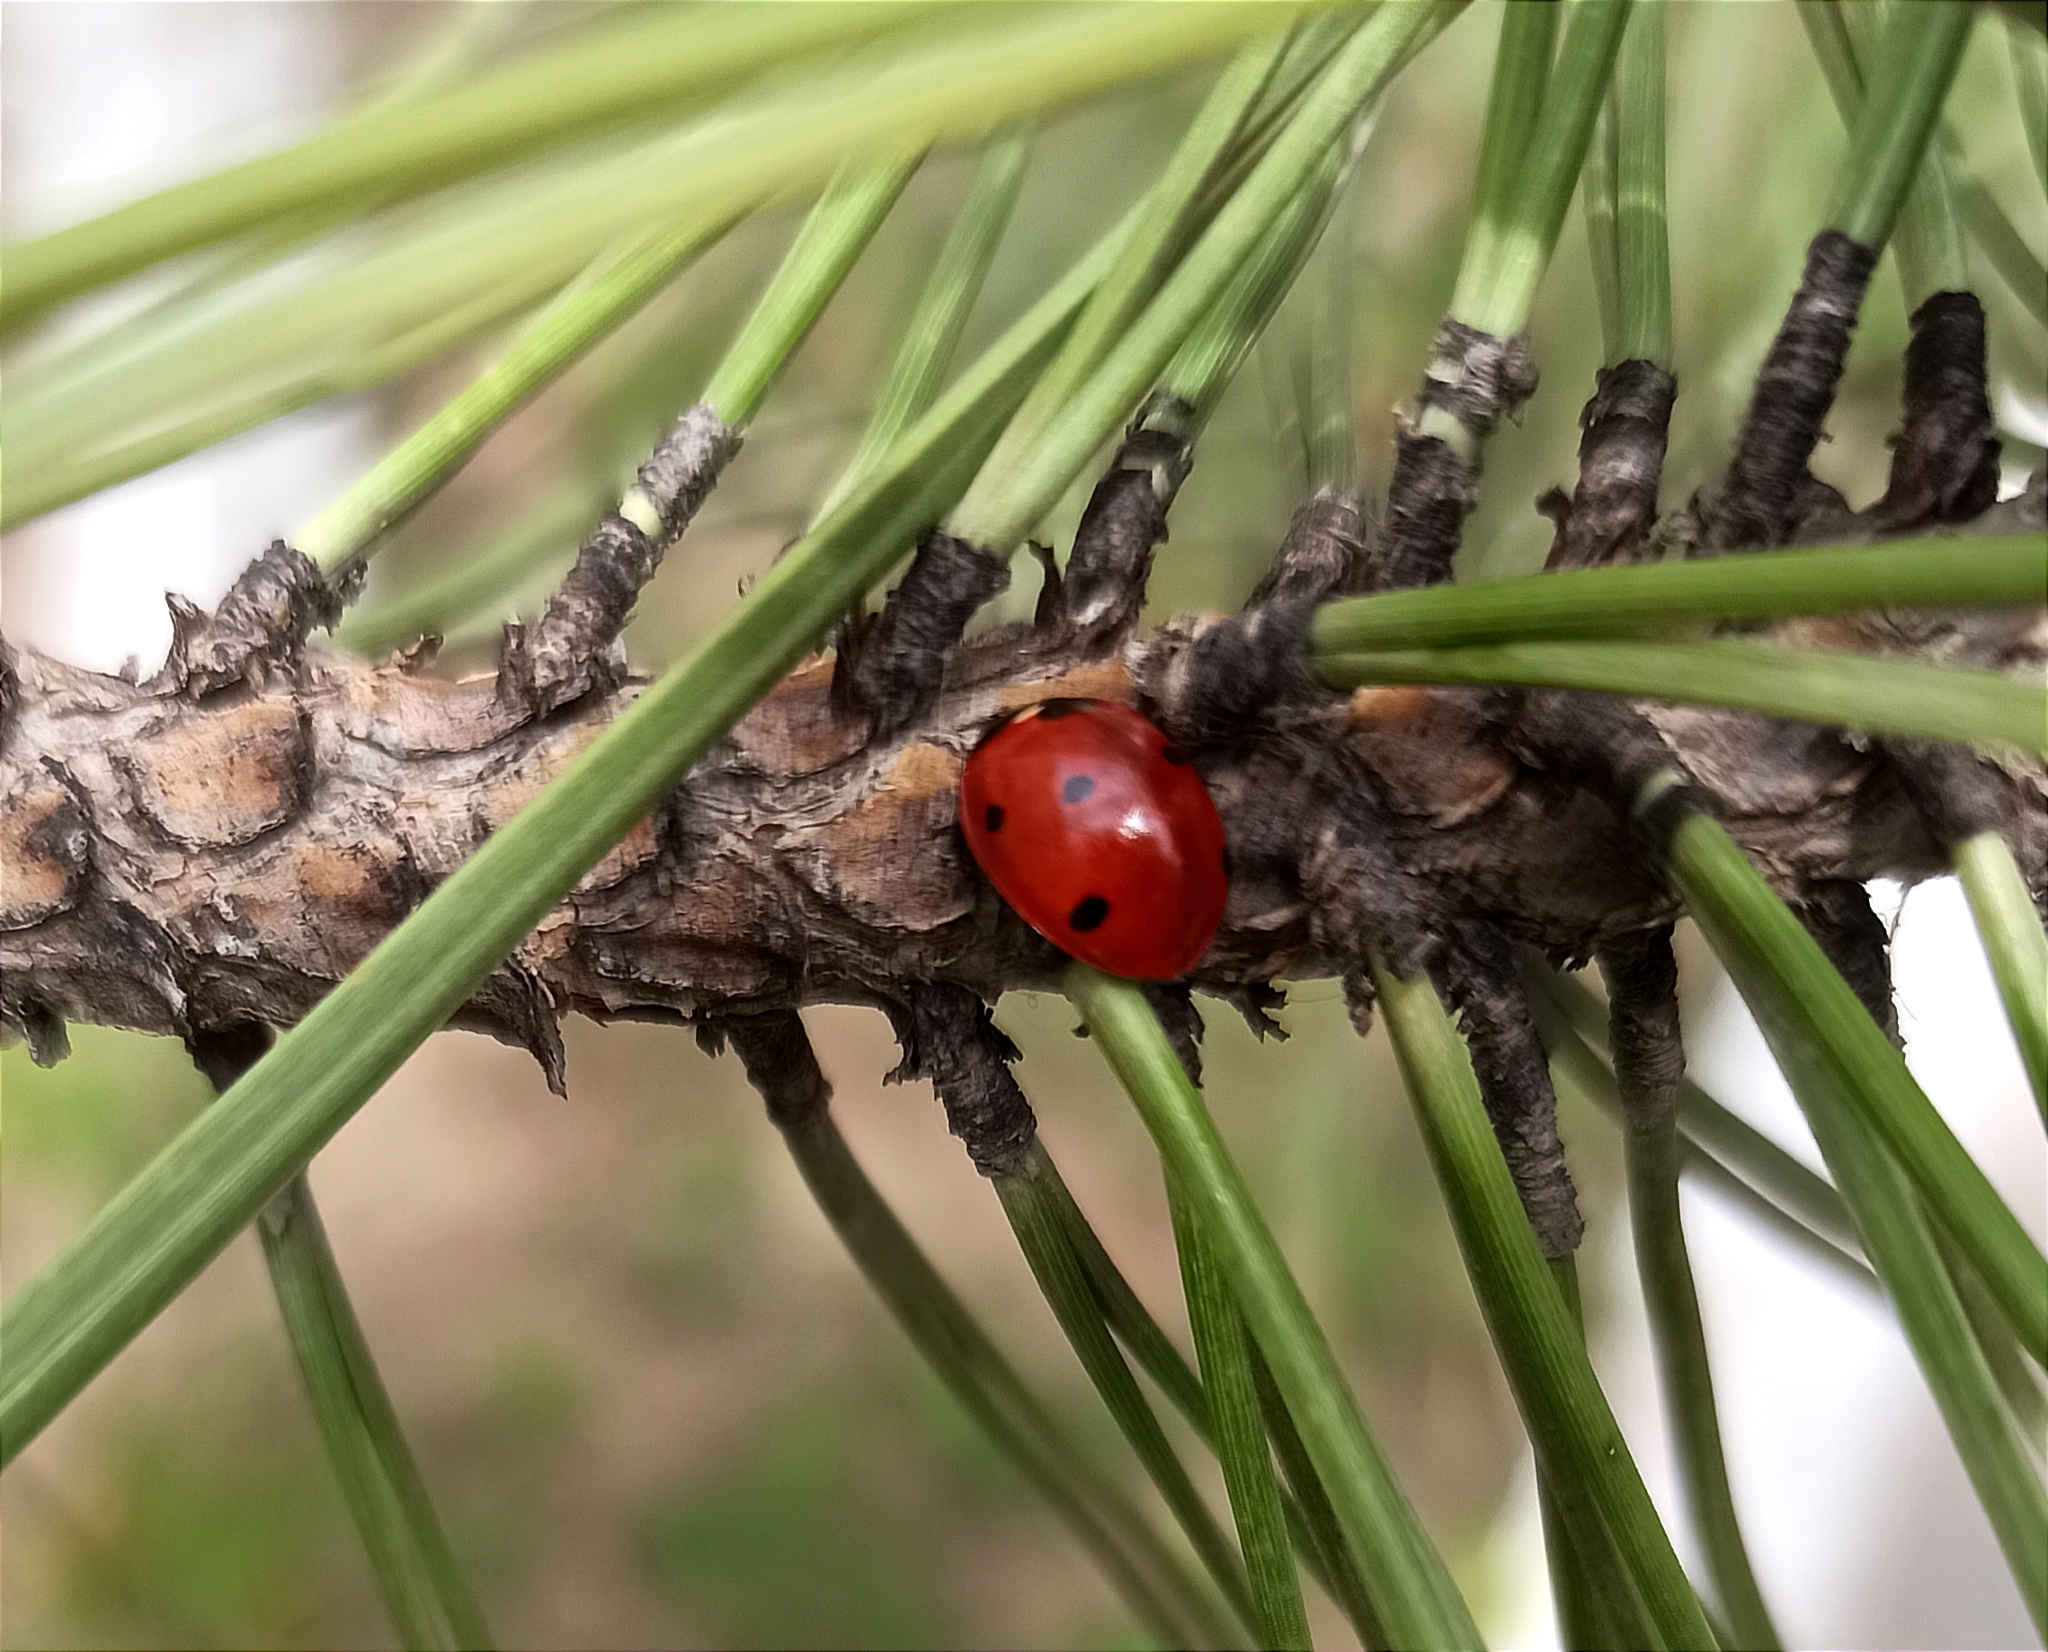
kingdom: Animalia
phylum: Arthropoda
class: Insecta
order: Coleoptera
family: Coccinellidae
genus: Coccinella
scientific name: Coccinella septempunctata
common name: Sevenspotted lady beetle
